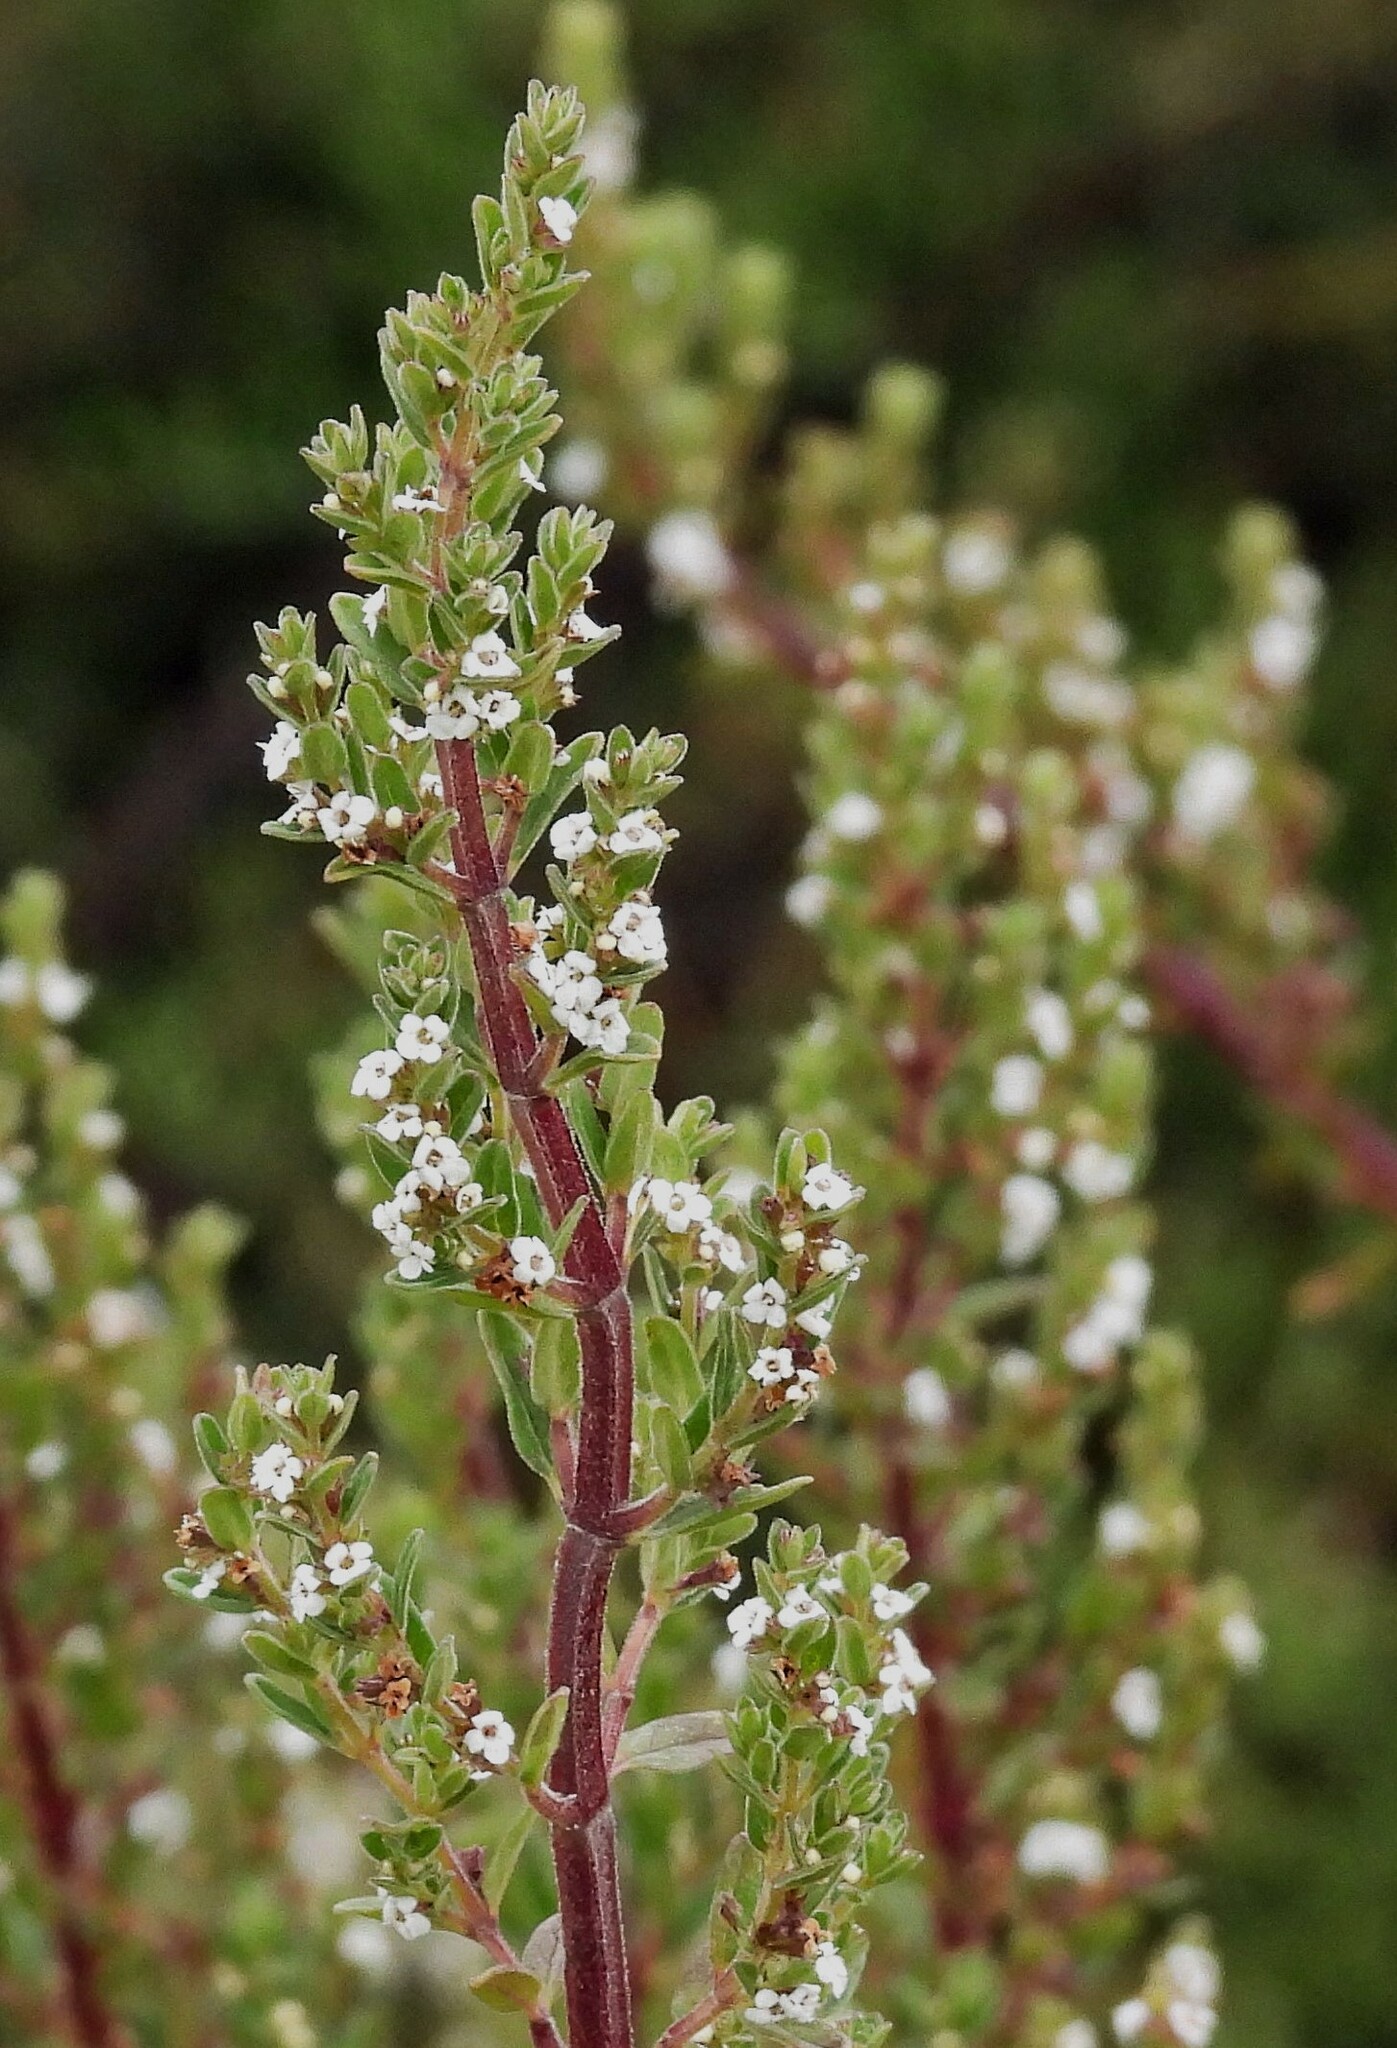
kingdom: Plantae
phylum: Tracheophyta
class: Magnoliopsida
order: Lamiales
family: Lamiaceae
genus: Clinopodium
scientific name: Clinopodium gilliesii
